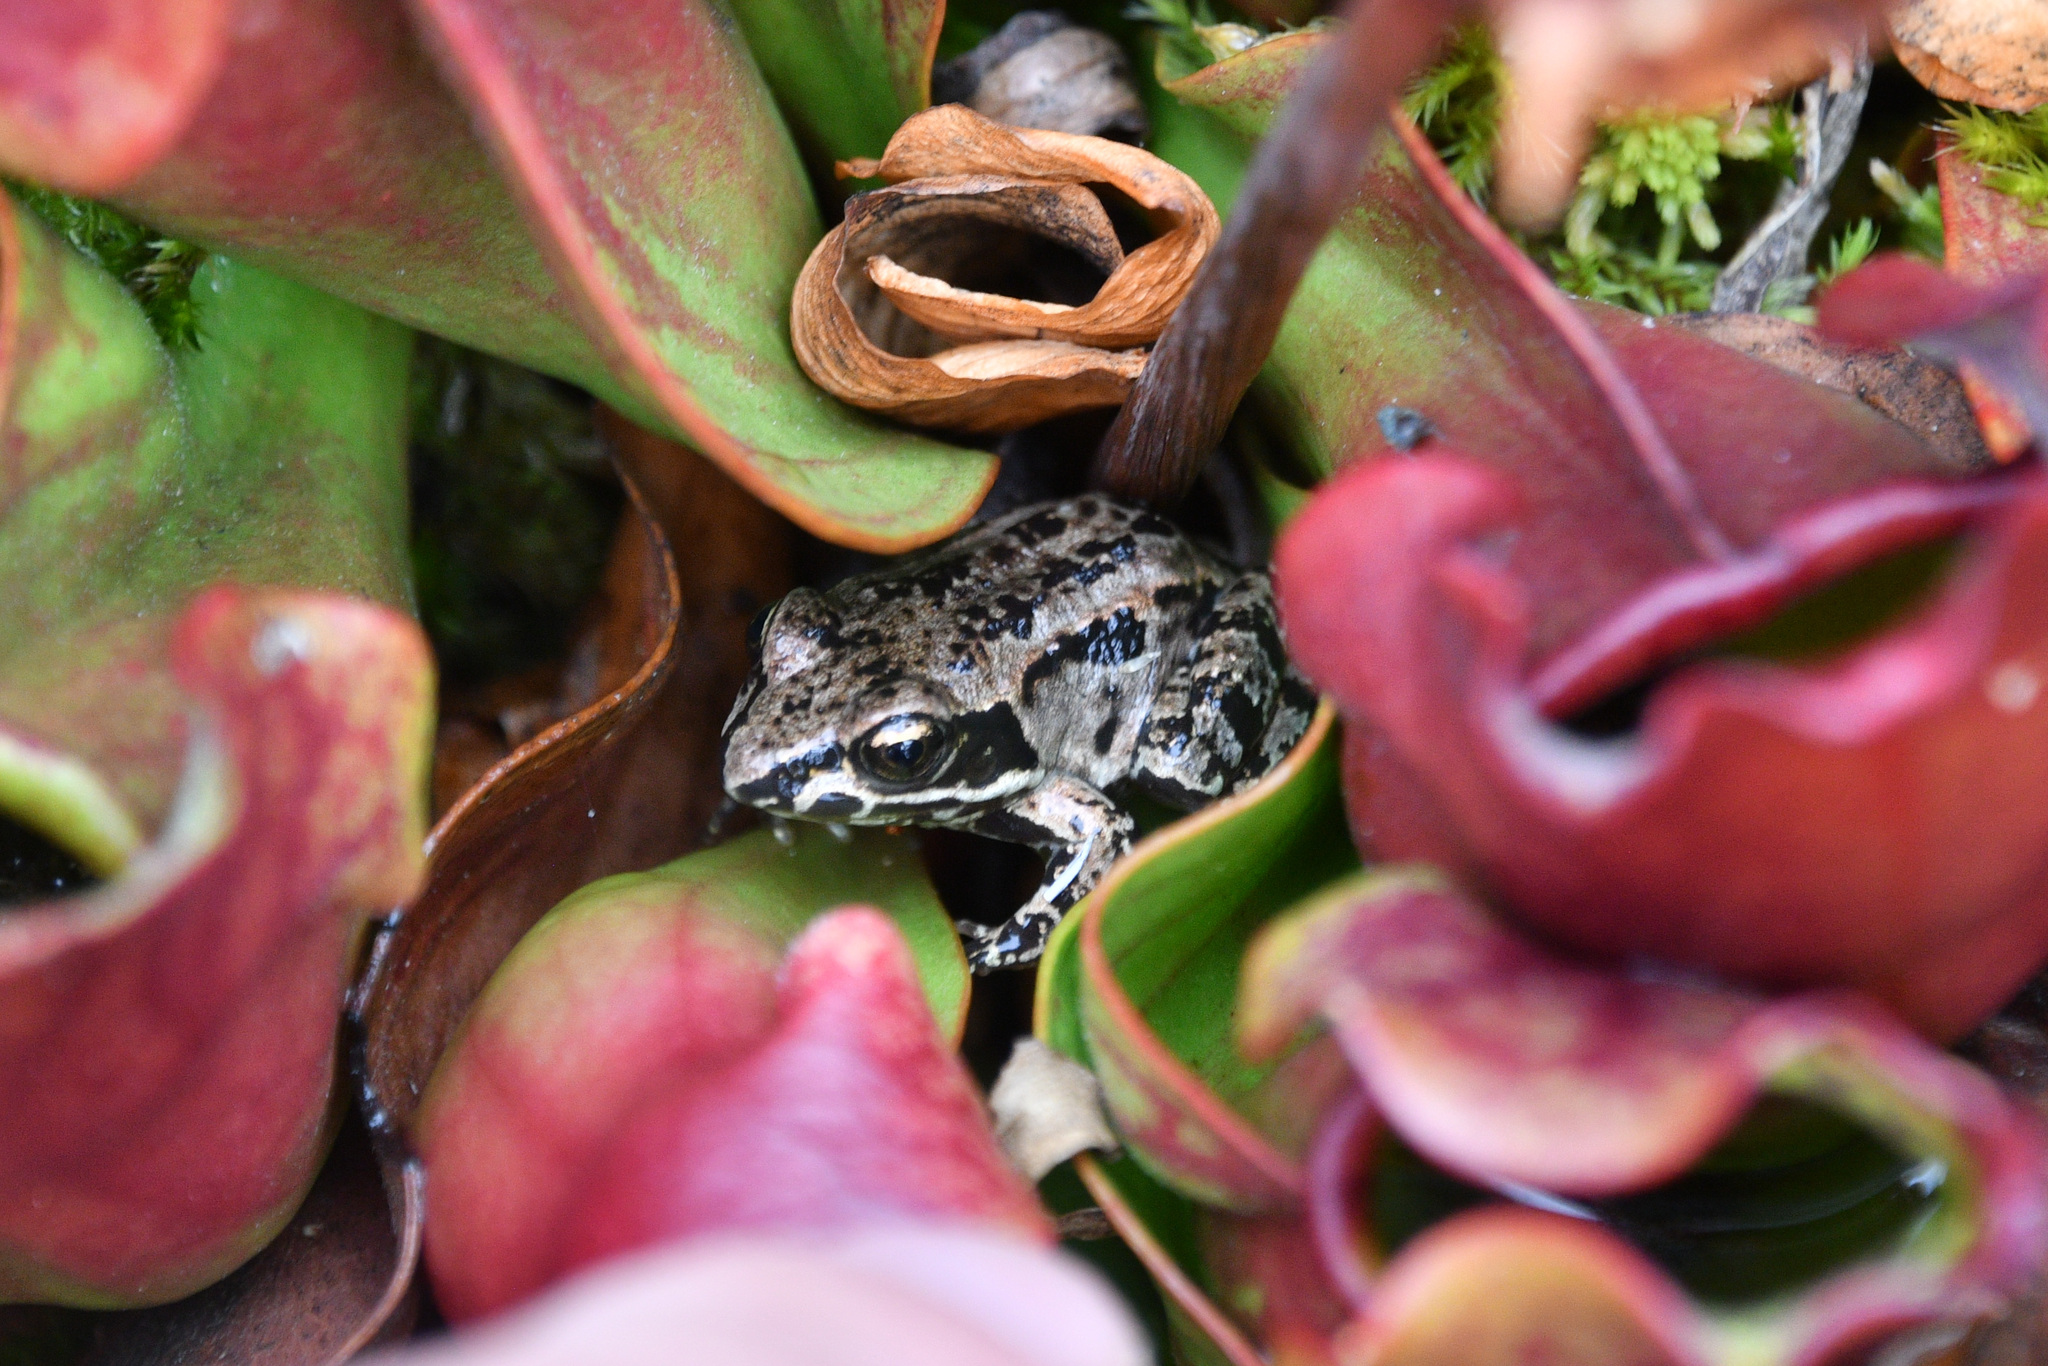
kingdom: Animalia
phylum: Chordata
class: Amphibia
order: Anura
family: Ranidae
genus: Lithobates
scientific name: Lithobates sylvaticus
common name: Wood frog
